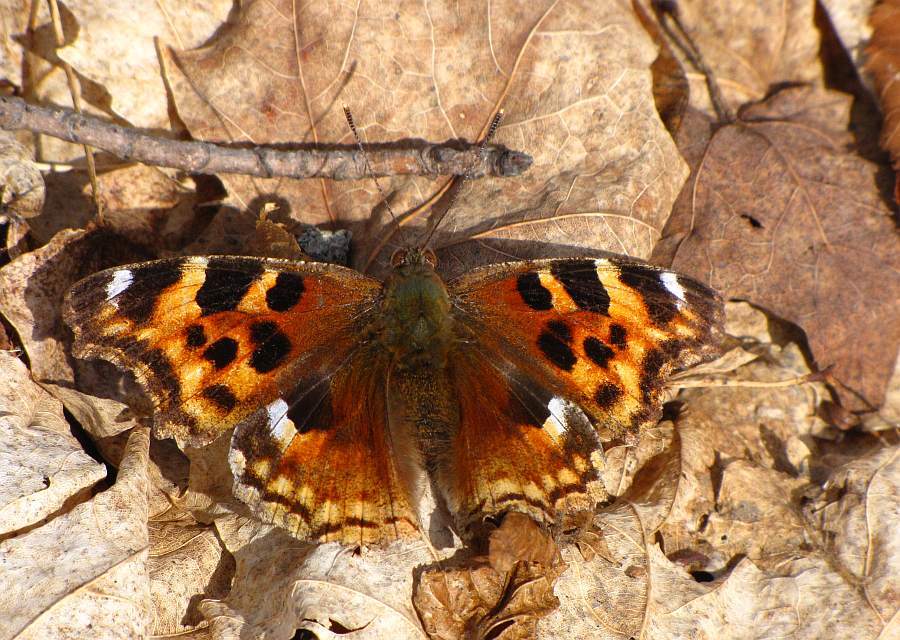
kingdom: Animalia
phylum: Arthropoda
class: Insecta
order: Lepidoptera
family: Nymphalidae
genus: Polygonia
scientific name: Polygonia vaualbum
